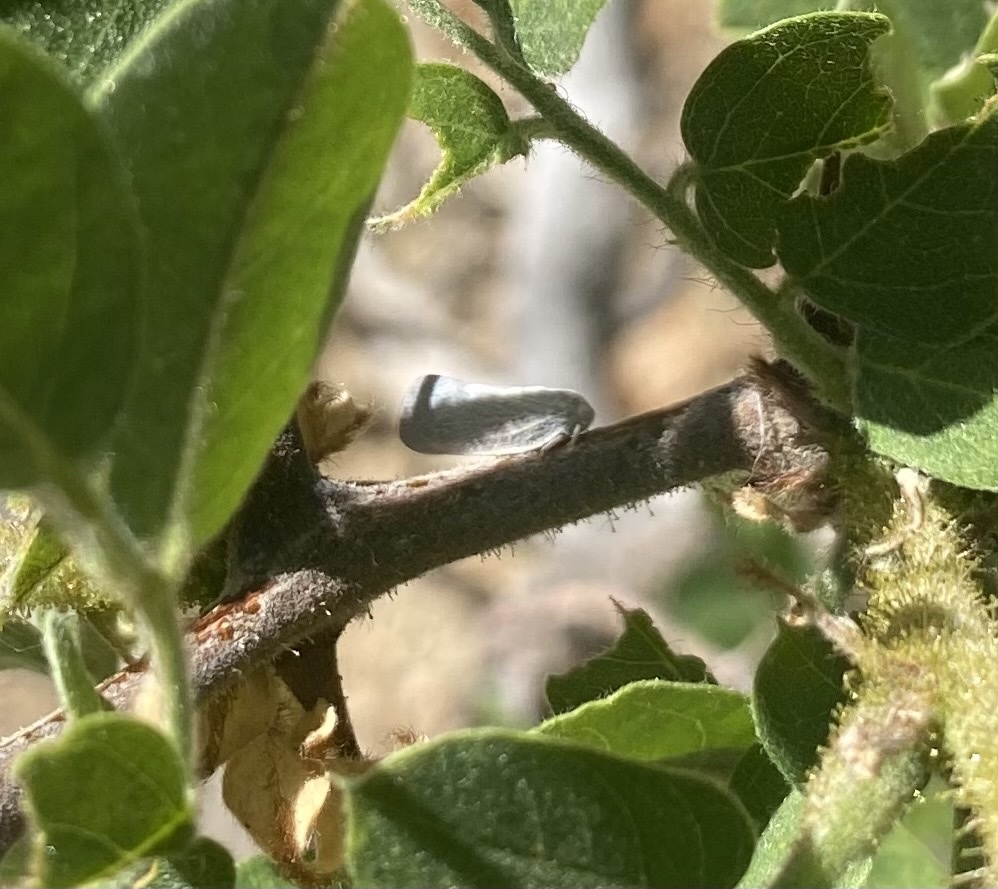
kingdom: Animalia
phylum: Arthropoda
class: Insecta
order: Hemiptera
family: Flatidae
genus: Flatormenis
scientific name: Flatormenis saucia
